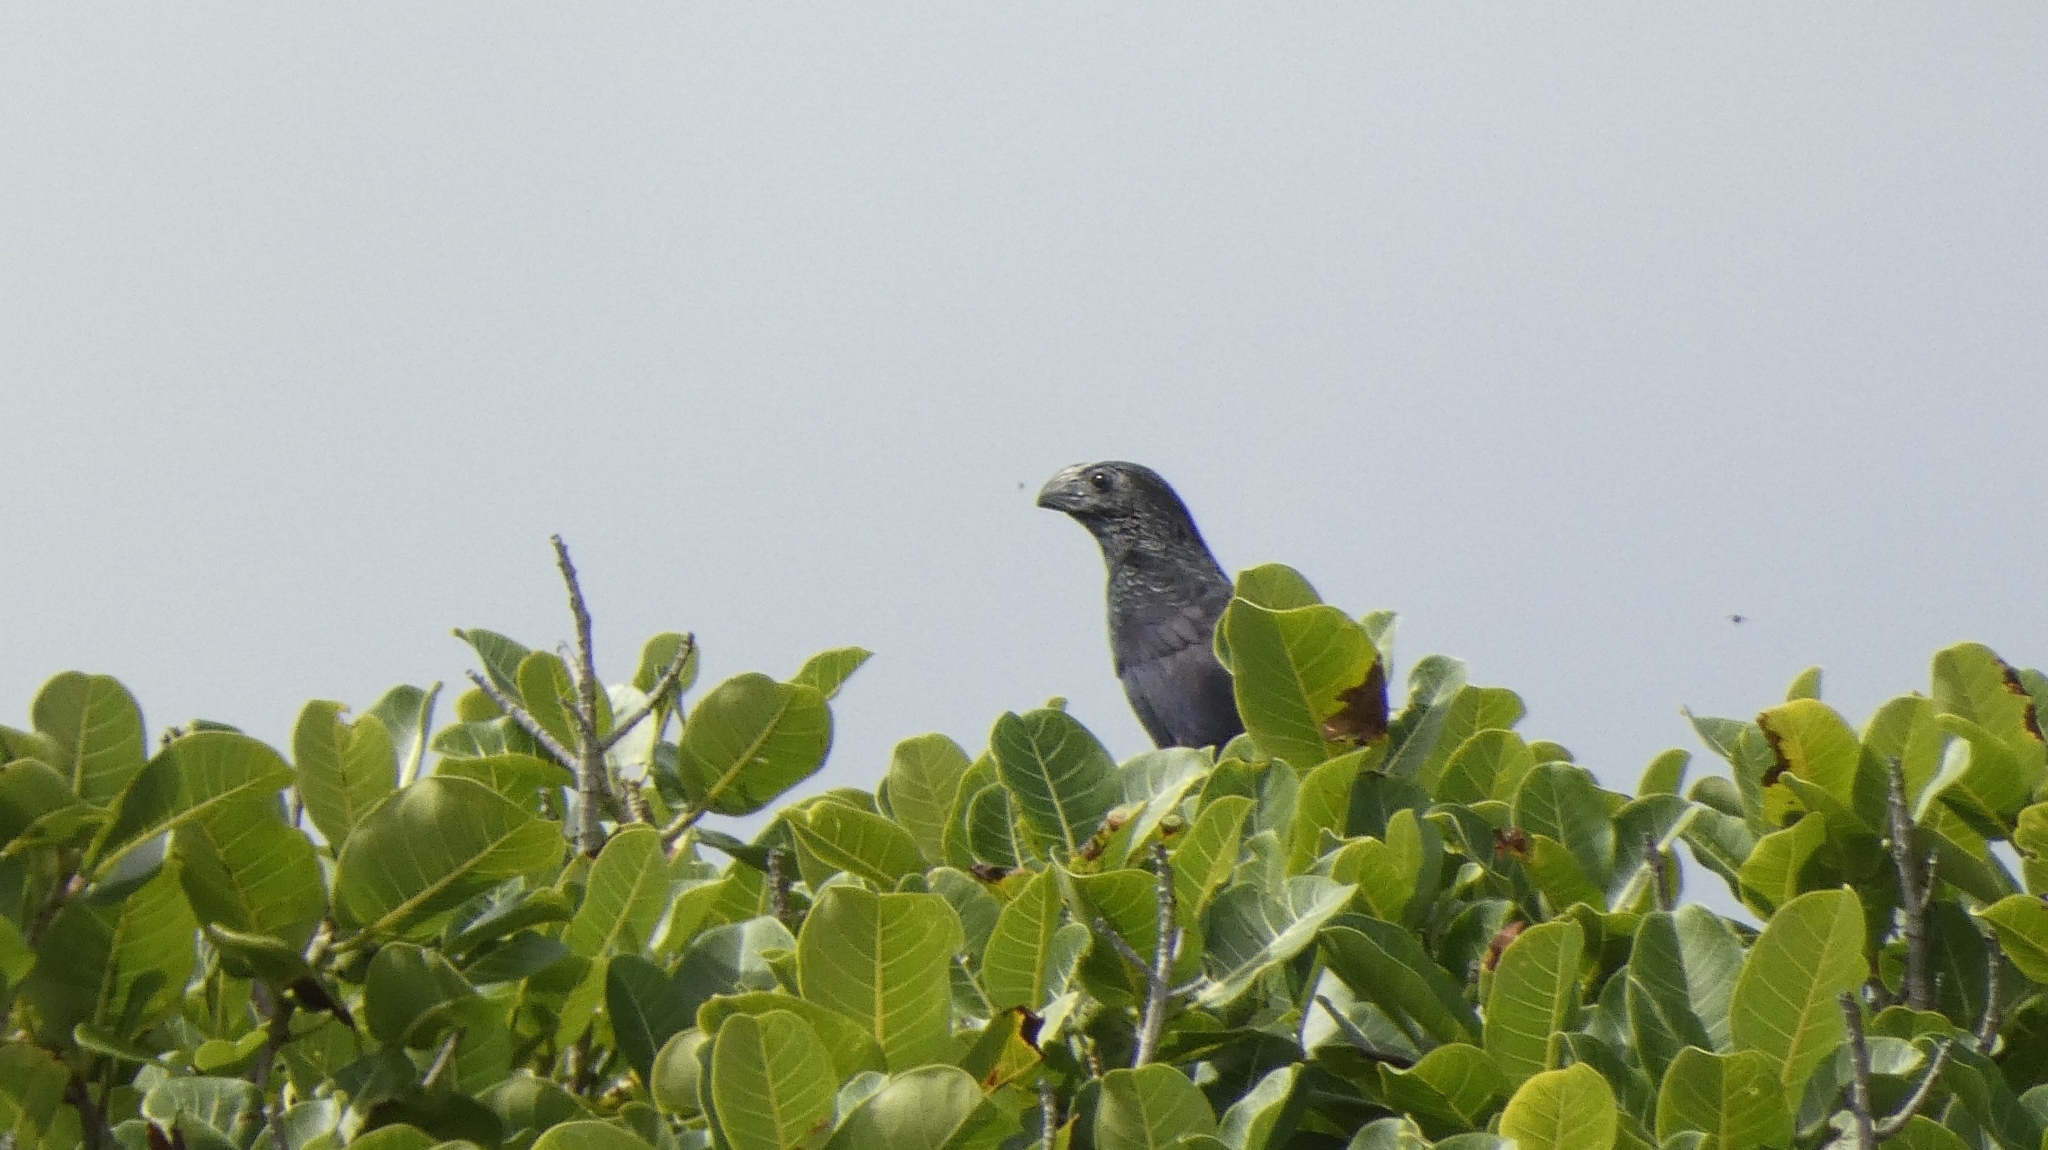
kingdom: Animalia
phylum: Chordata
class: Aves
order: Cuculiformes
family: Cuculidae
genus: Crotophaga
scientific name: Crotophaga sulcirostris
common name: Groove-billed ani
